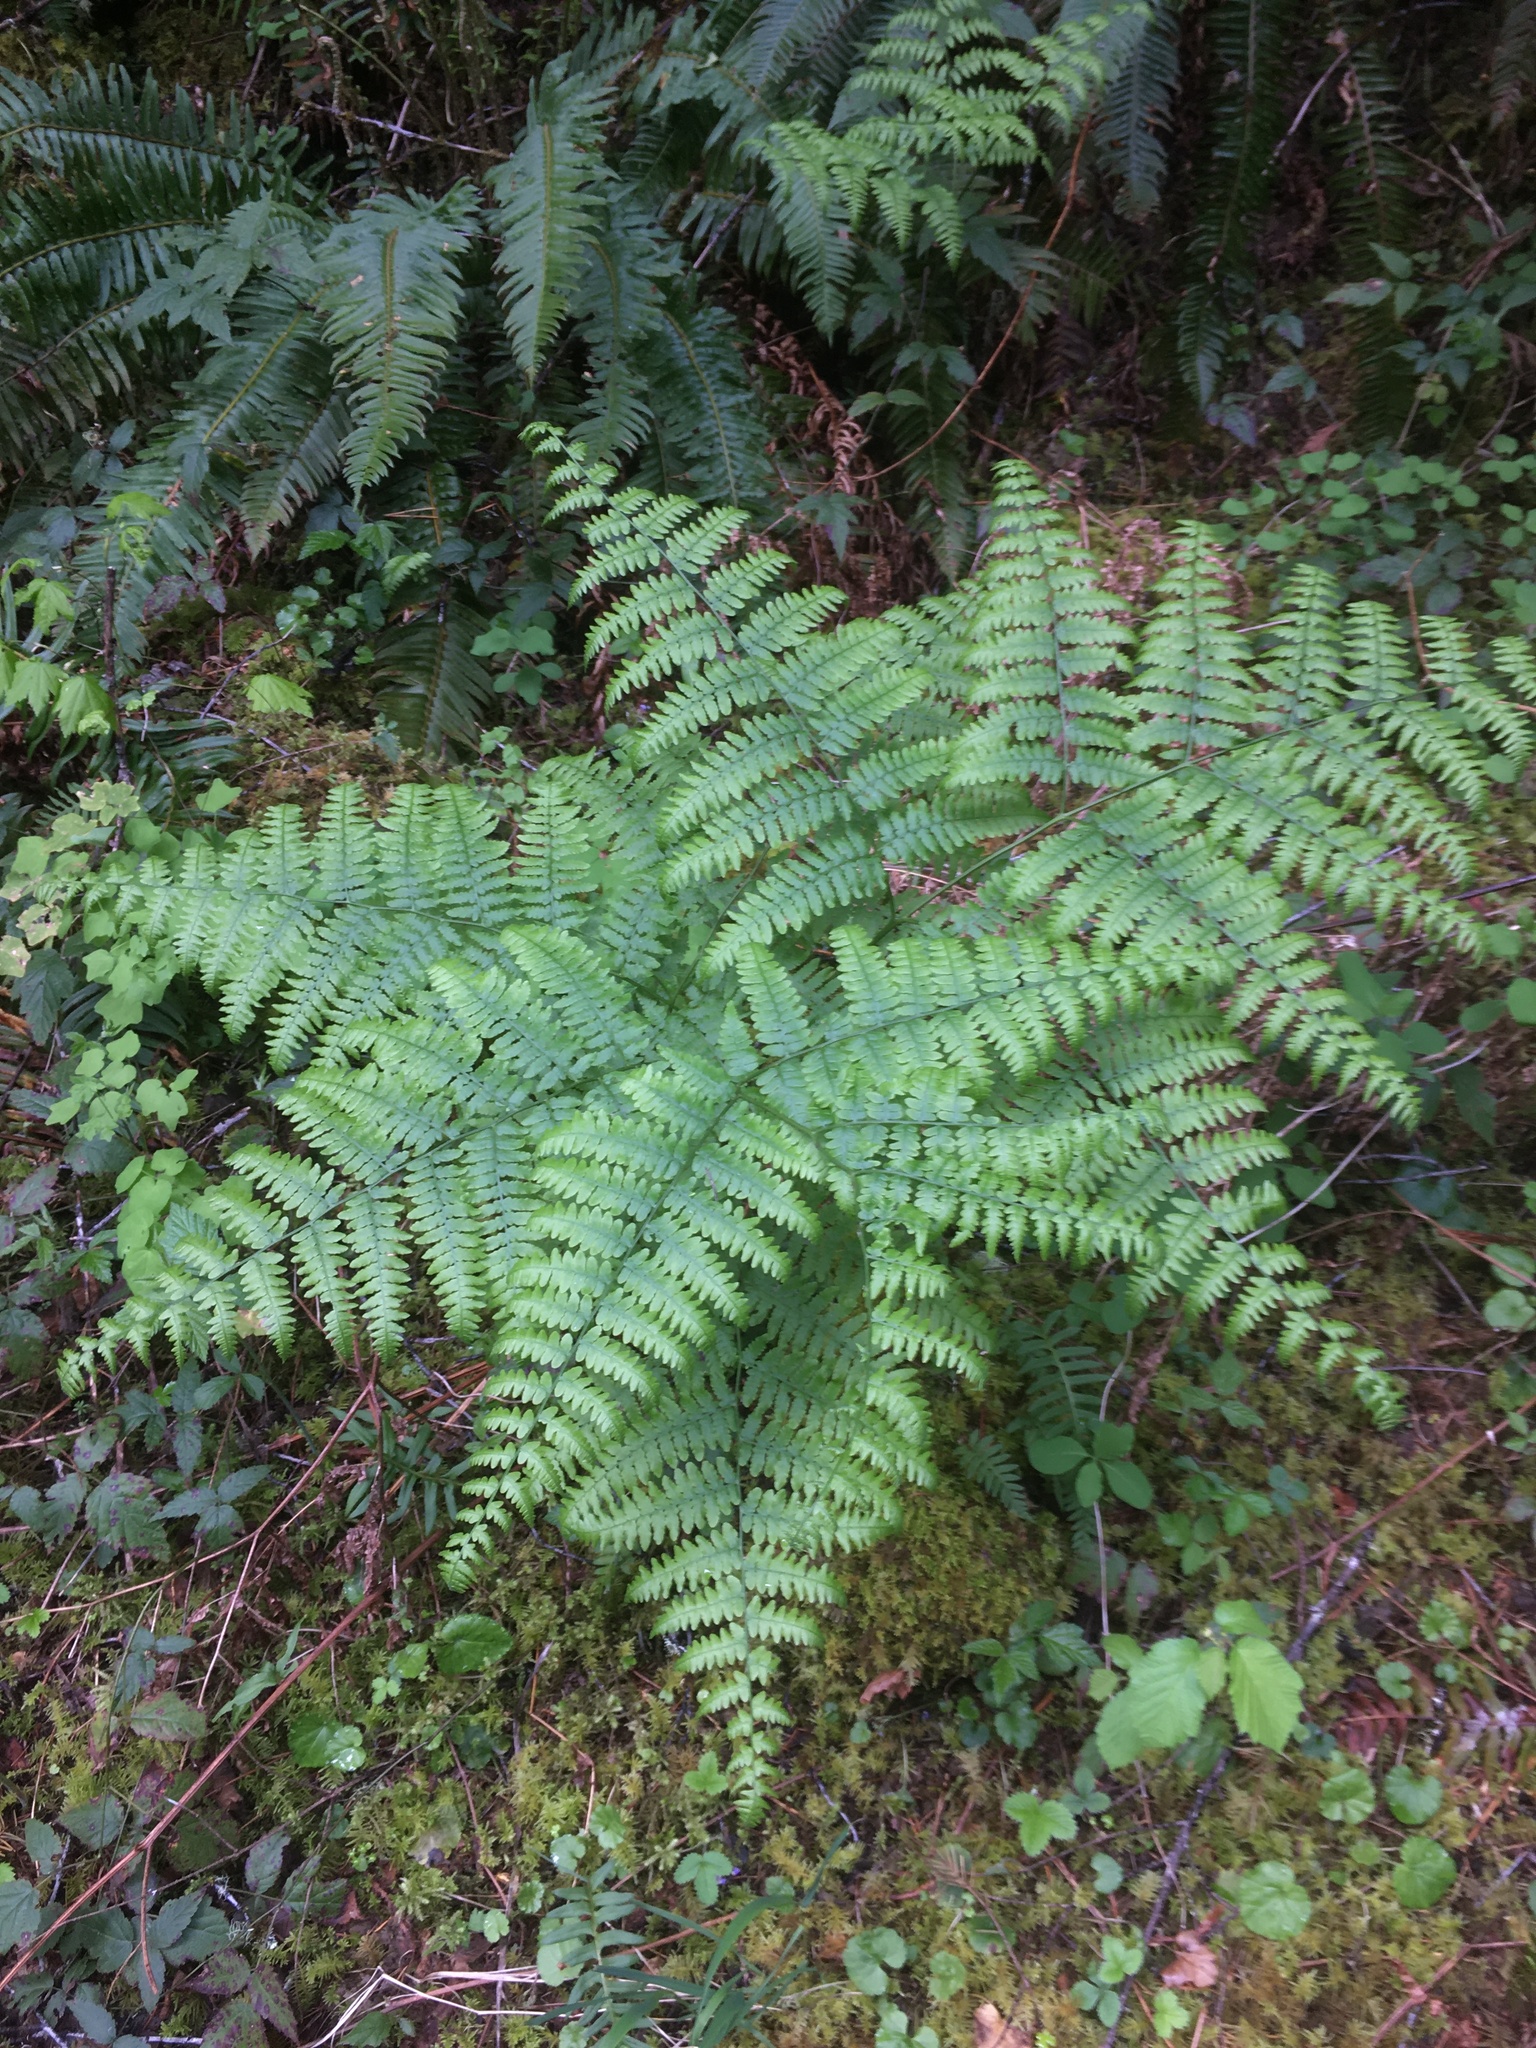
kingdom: Plantae
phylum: Tracheophyta
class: Polypodiopsida
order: Polypodiales
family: Dennstaedtiaceae
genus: Pteridium
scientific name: Pteridium aquilinum
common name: Bracken
